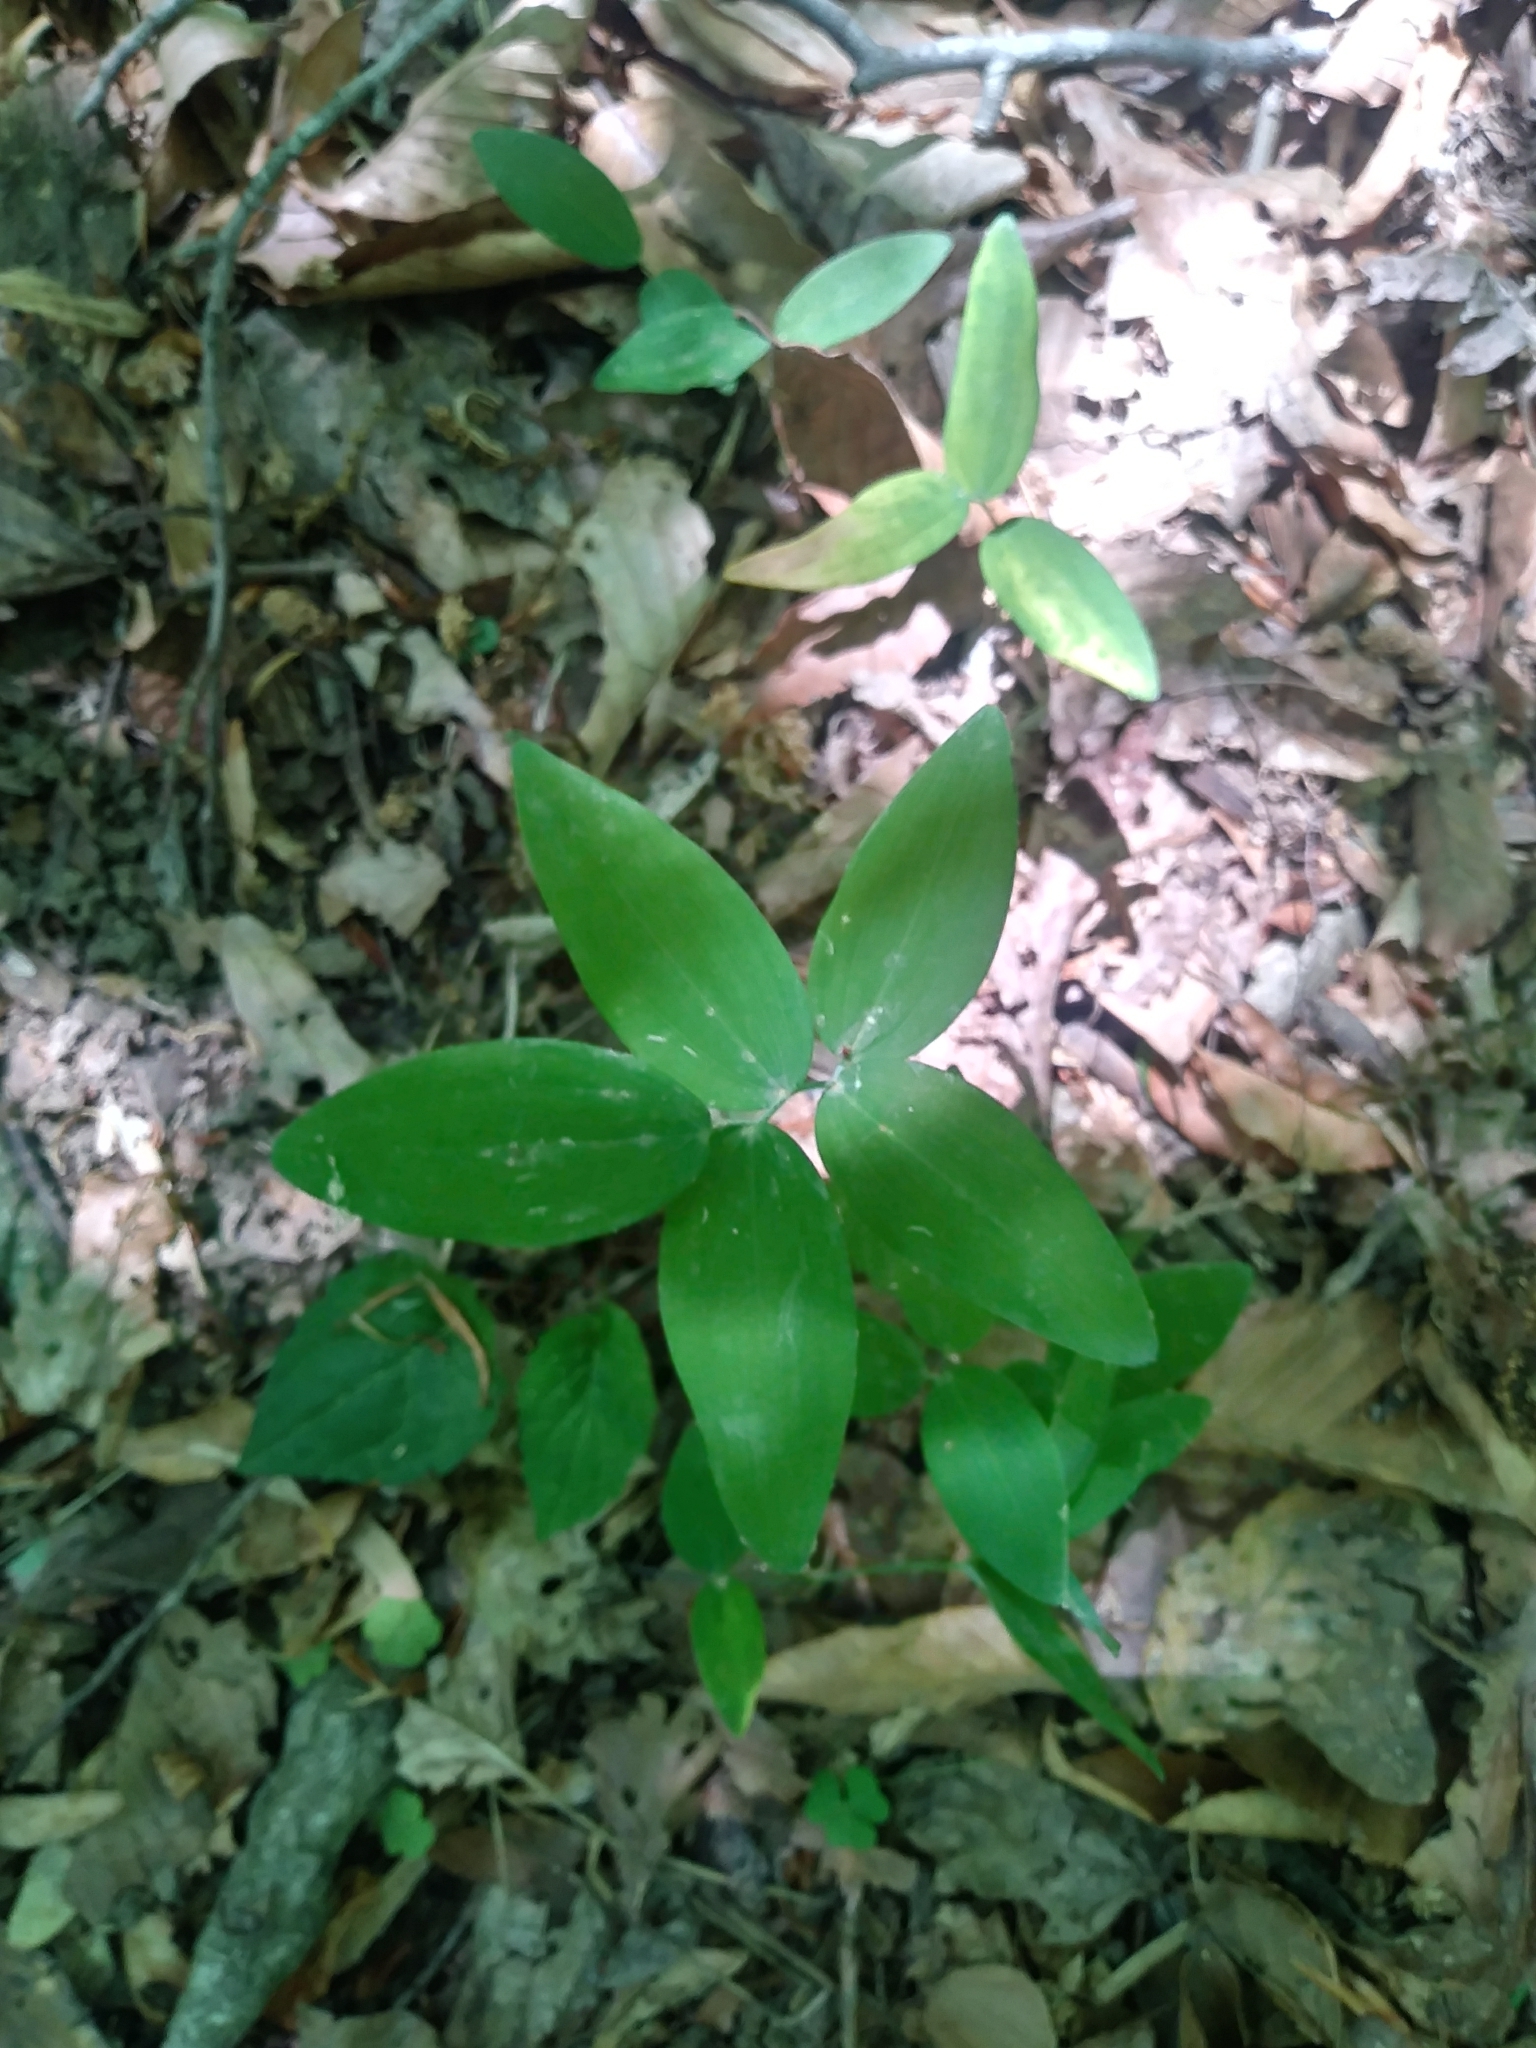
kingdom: Plantae
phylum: Tracheophyta
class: Liliopsida
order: Liliales
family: Colchicaceae
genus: Uvularia
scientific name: Uvularia sessilifolia
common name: Straw-lily
